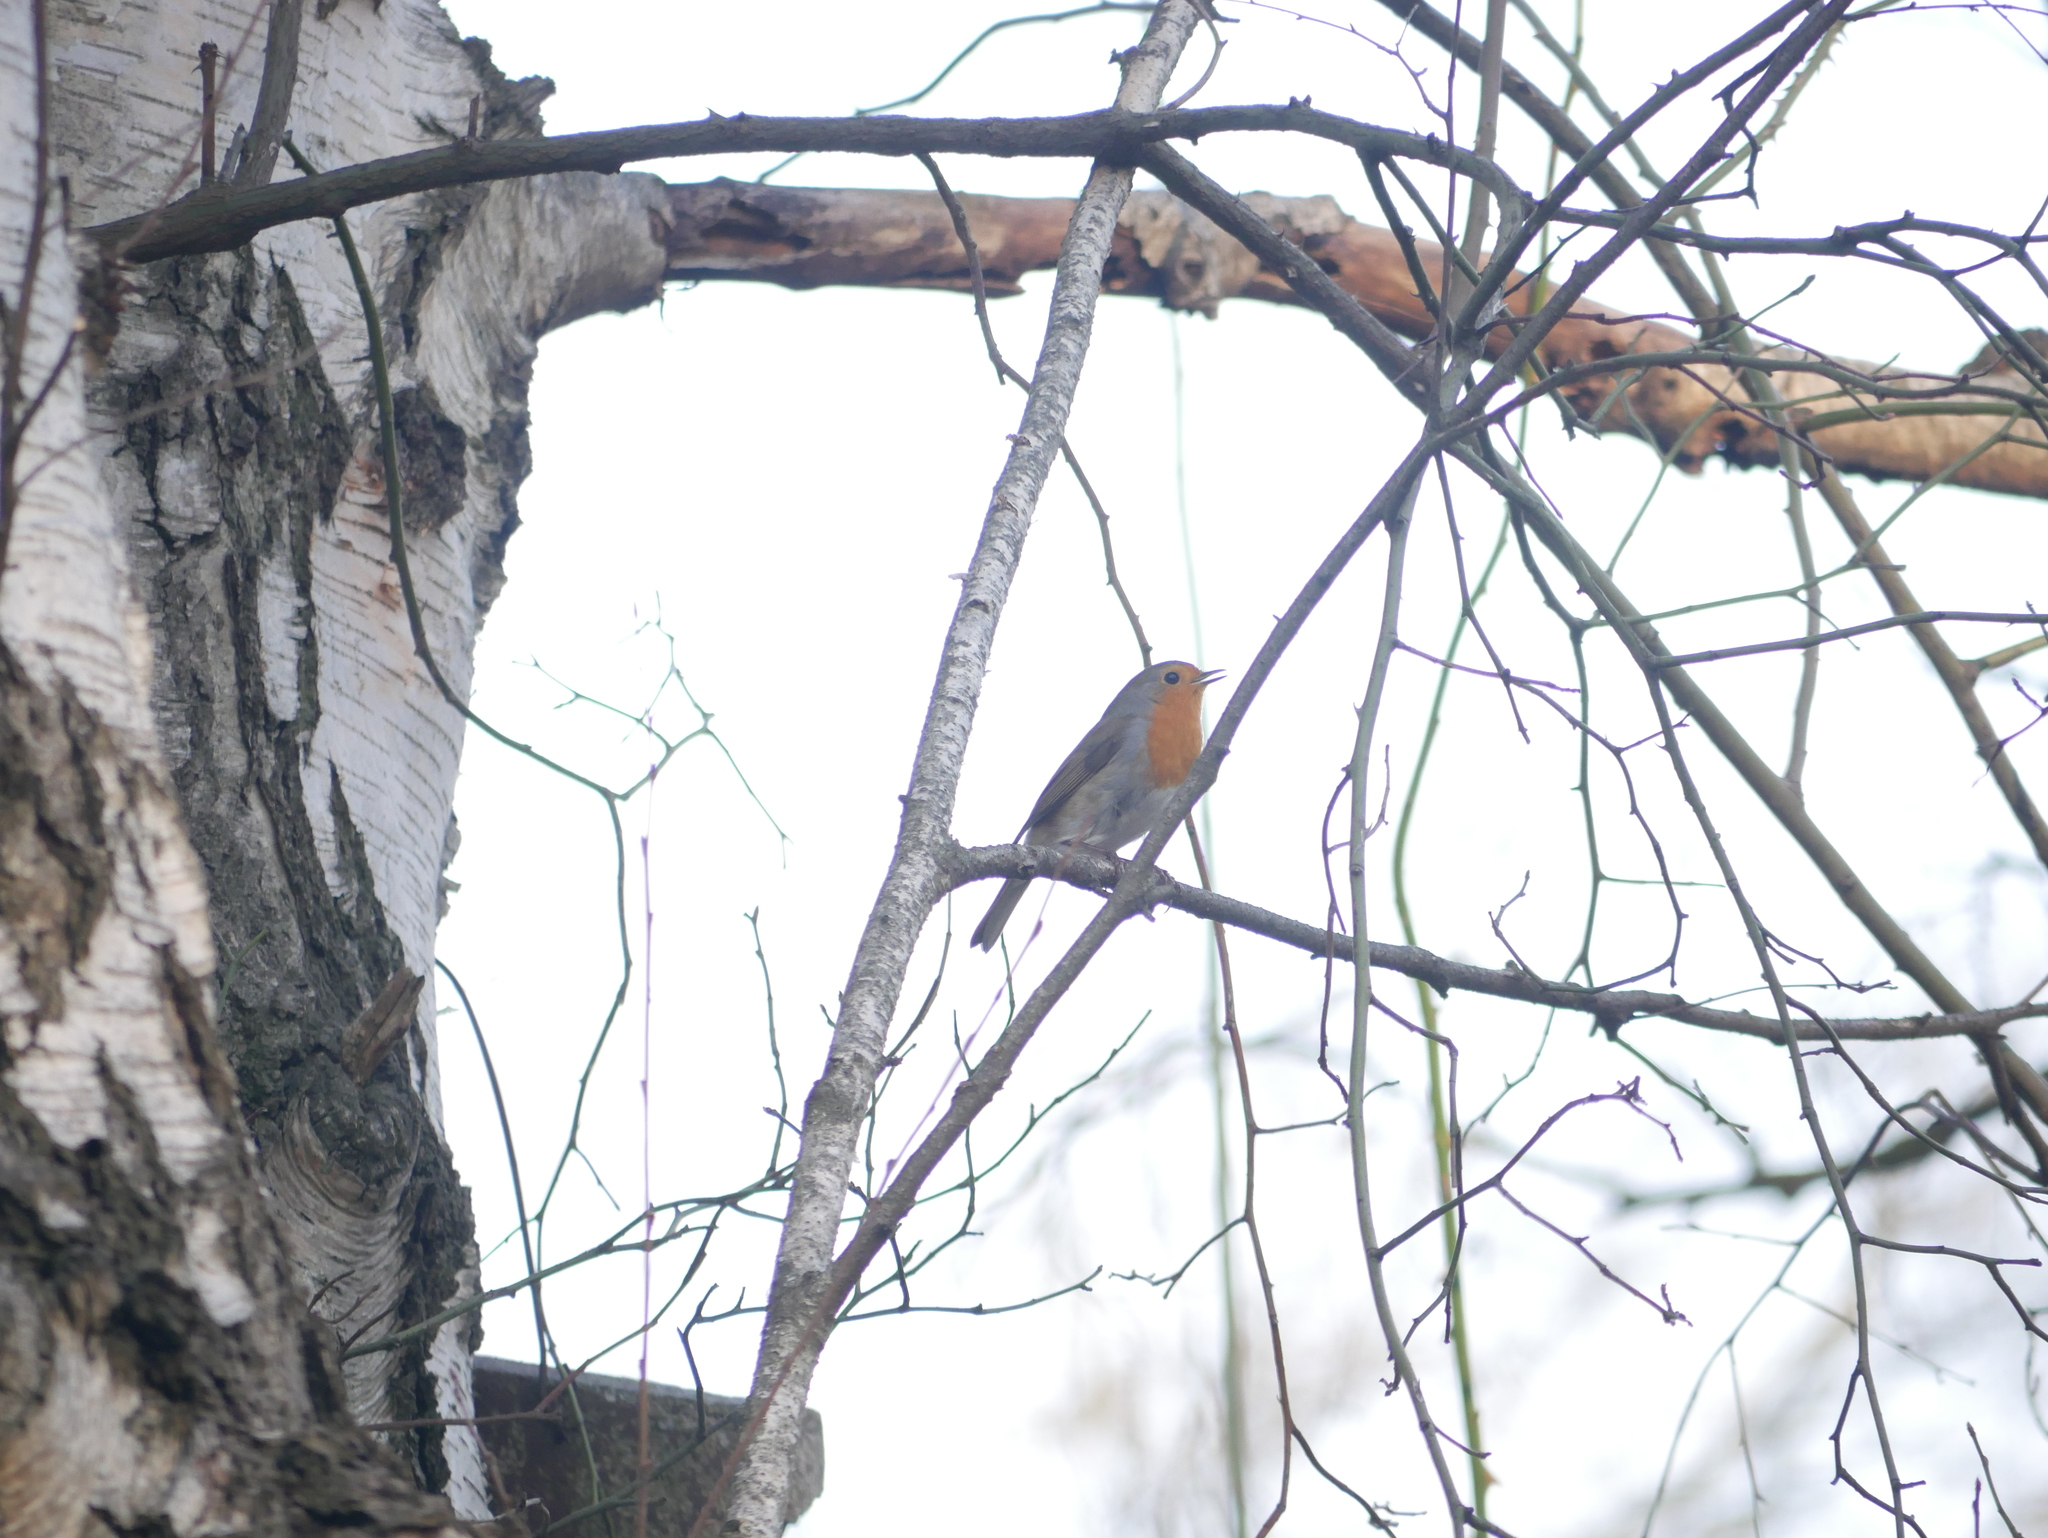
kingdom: Animalia
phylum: Chordata
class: Aves
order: Passeriformes
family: Muscicapidae
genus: Erithacus
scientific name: Erithacus rubecula
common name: European robin
